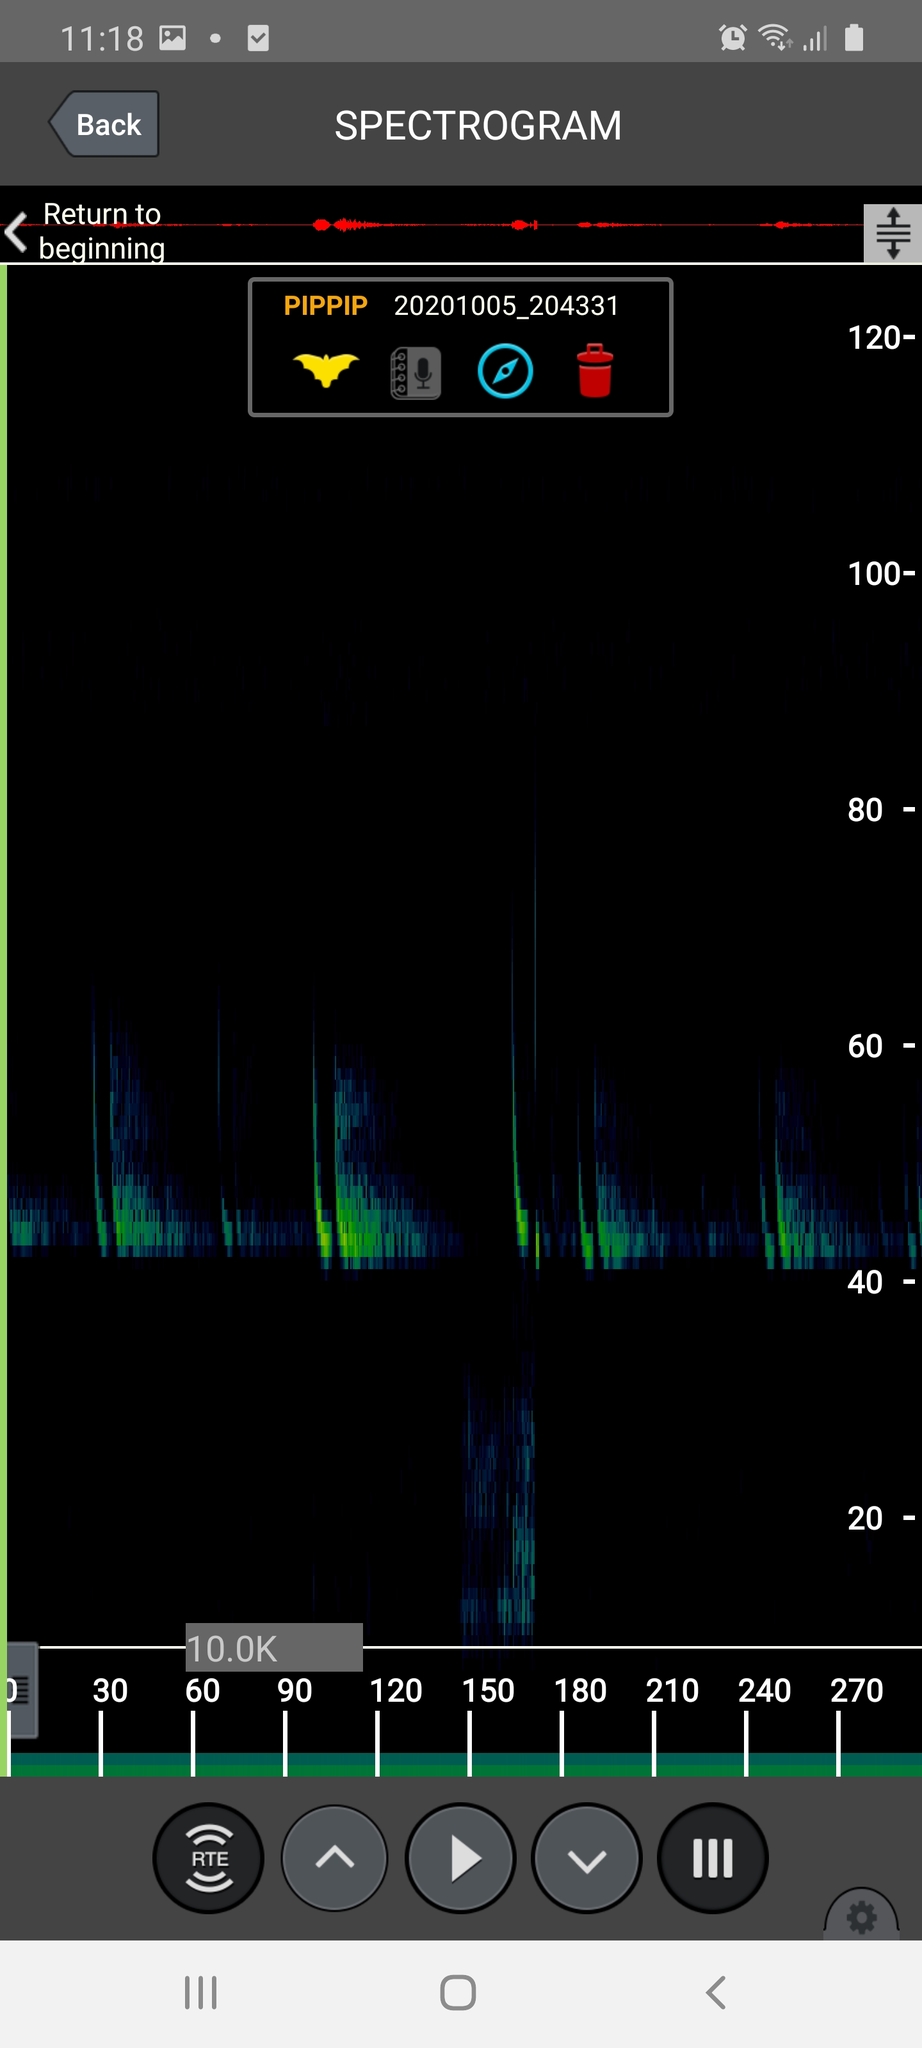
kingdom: Animalia
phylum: Chordata
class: Mammalia
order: Chiroptera
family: Vespertilionidae
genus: Pipistrellus
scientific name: Pipistrellus pipistrellus
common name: Common pipistrelle
